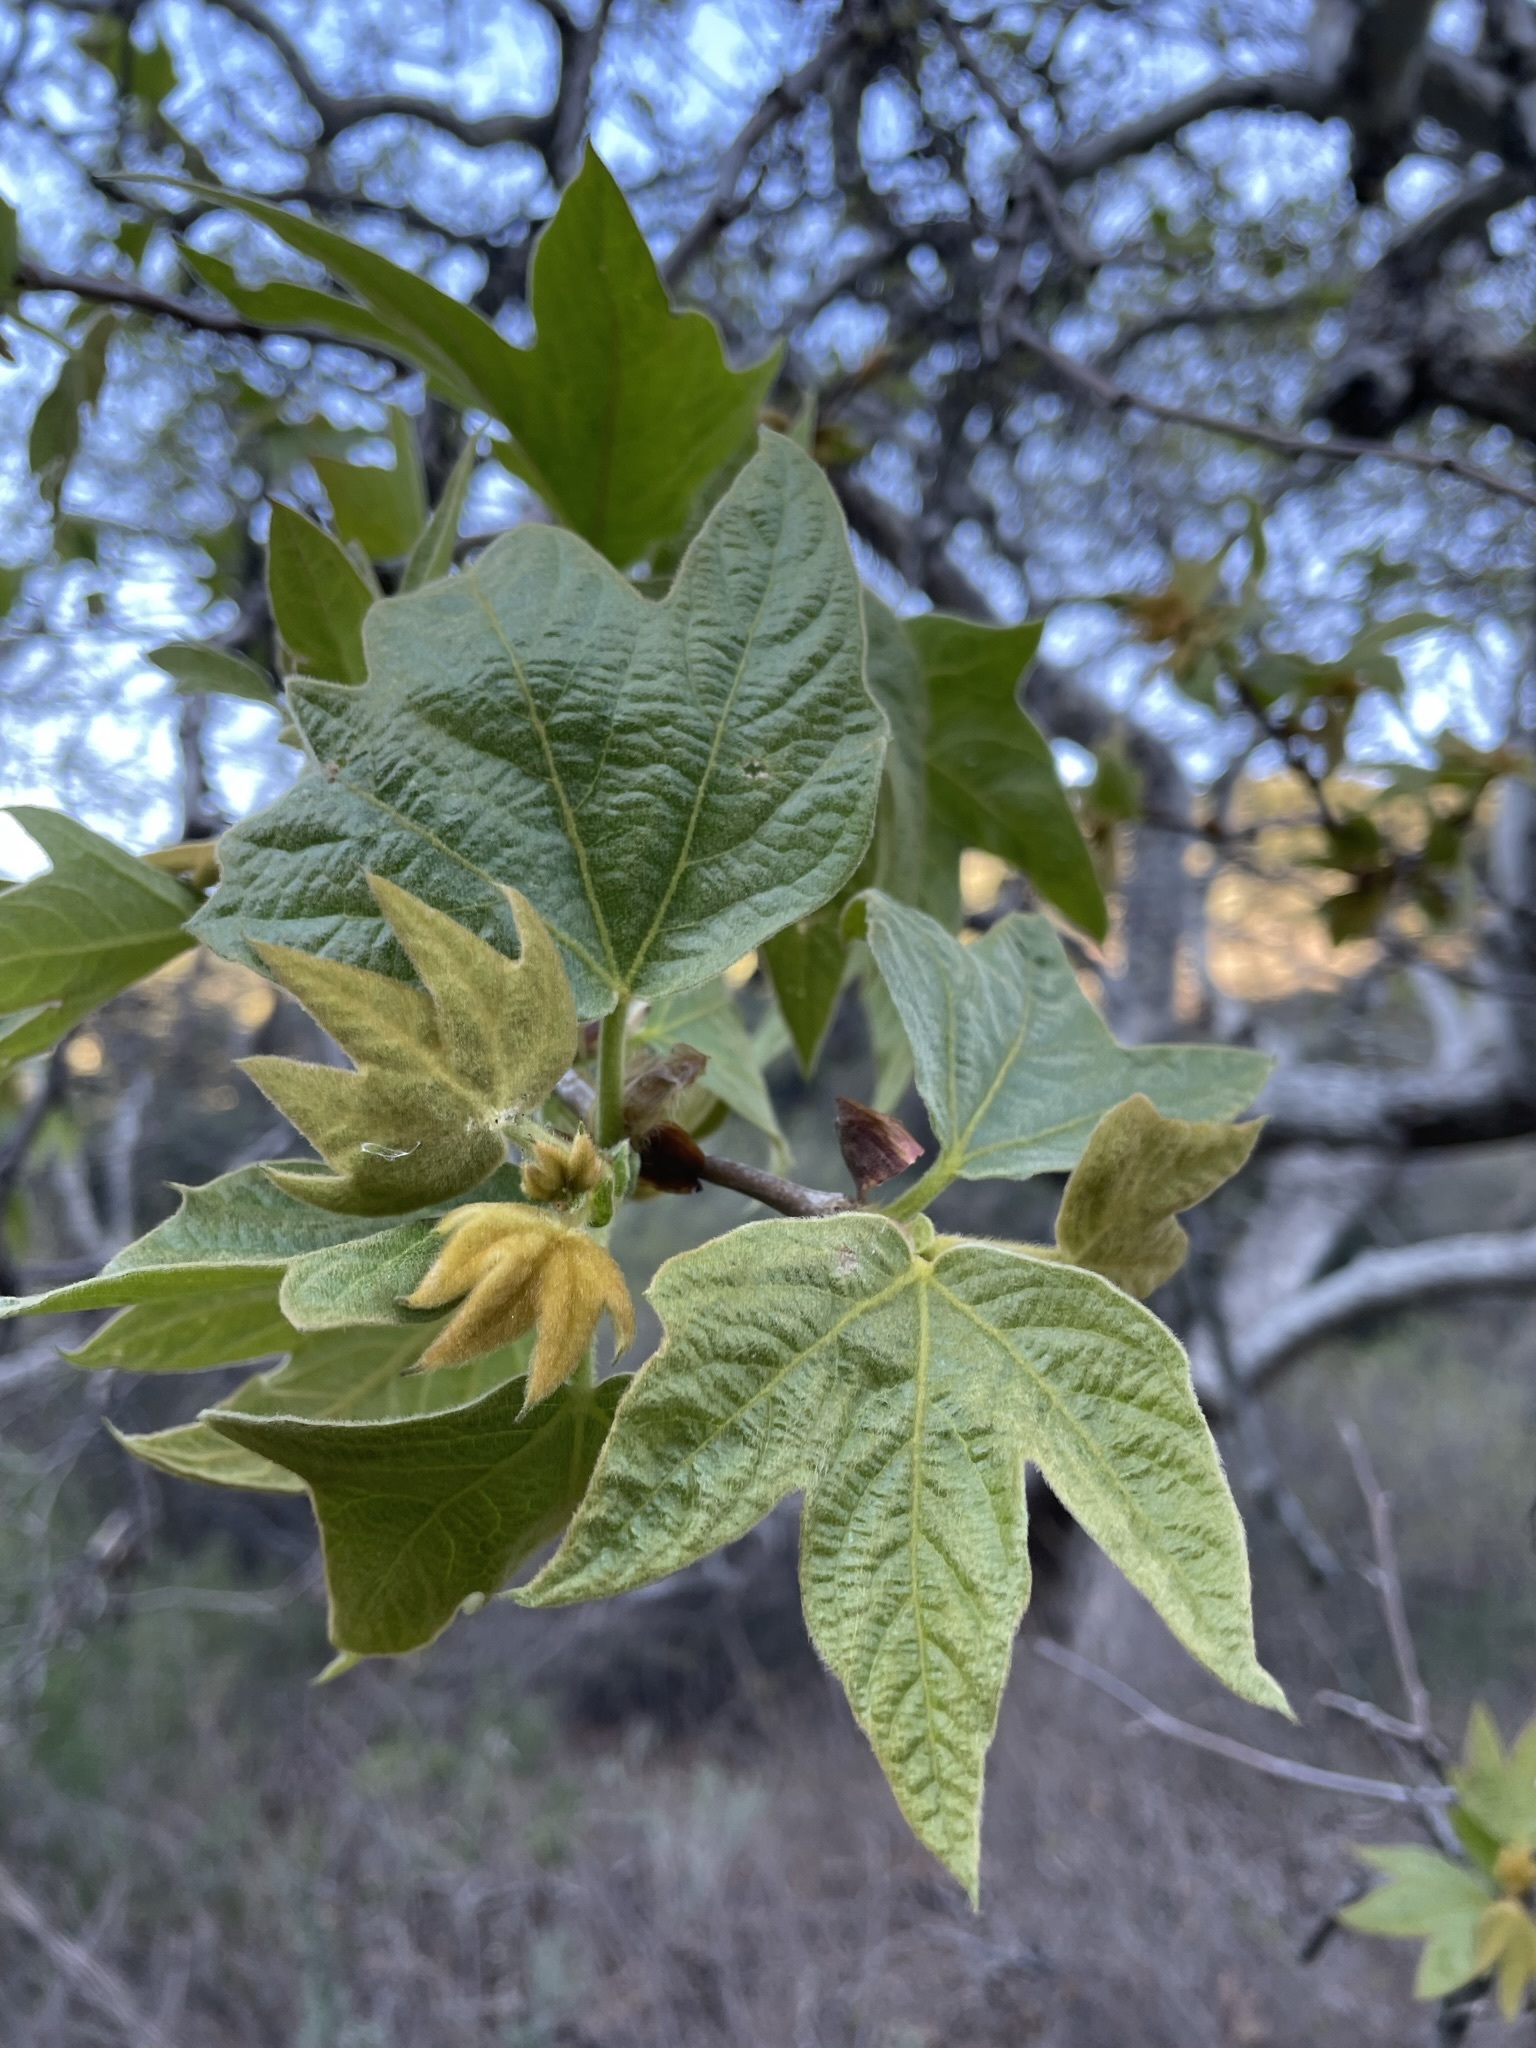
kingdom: Plantae
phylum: Tracheophyta
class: Magnoliopsida
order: Proteales
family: Platanaceae
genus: Platanus
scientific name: Platanus racemosa
